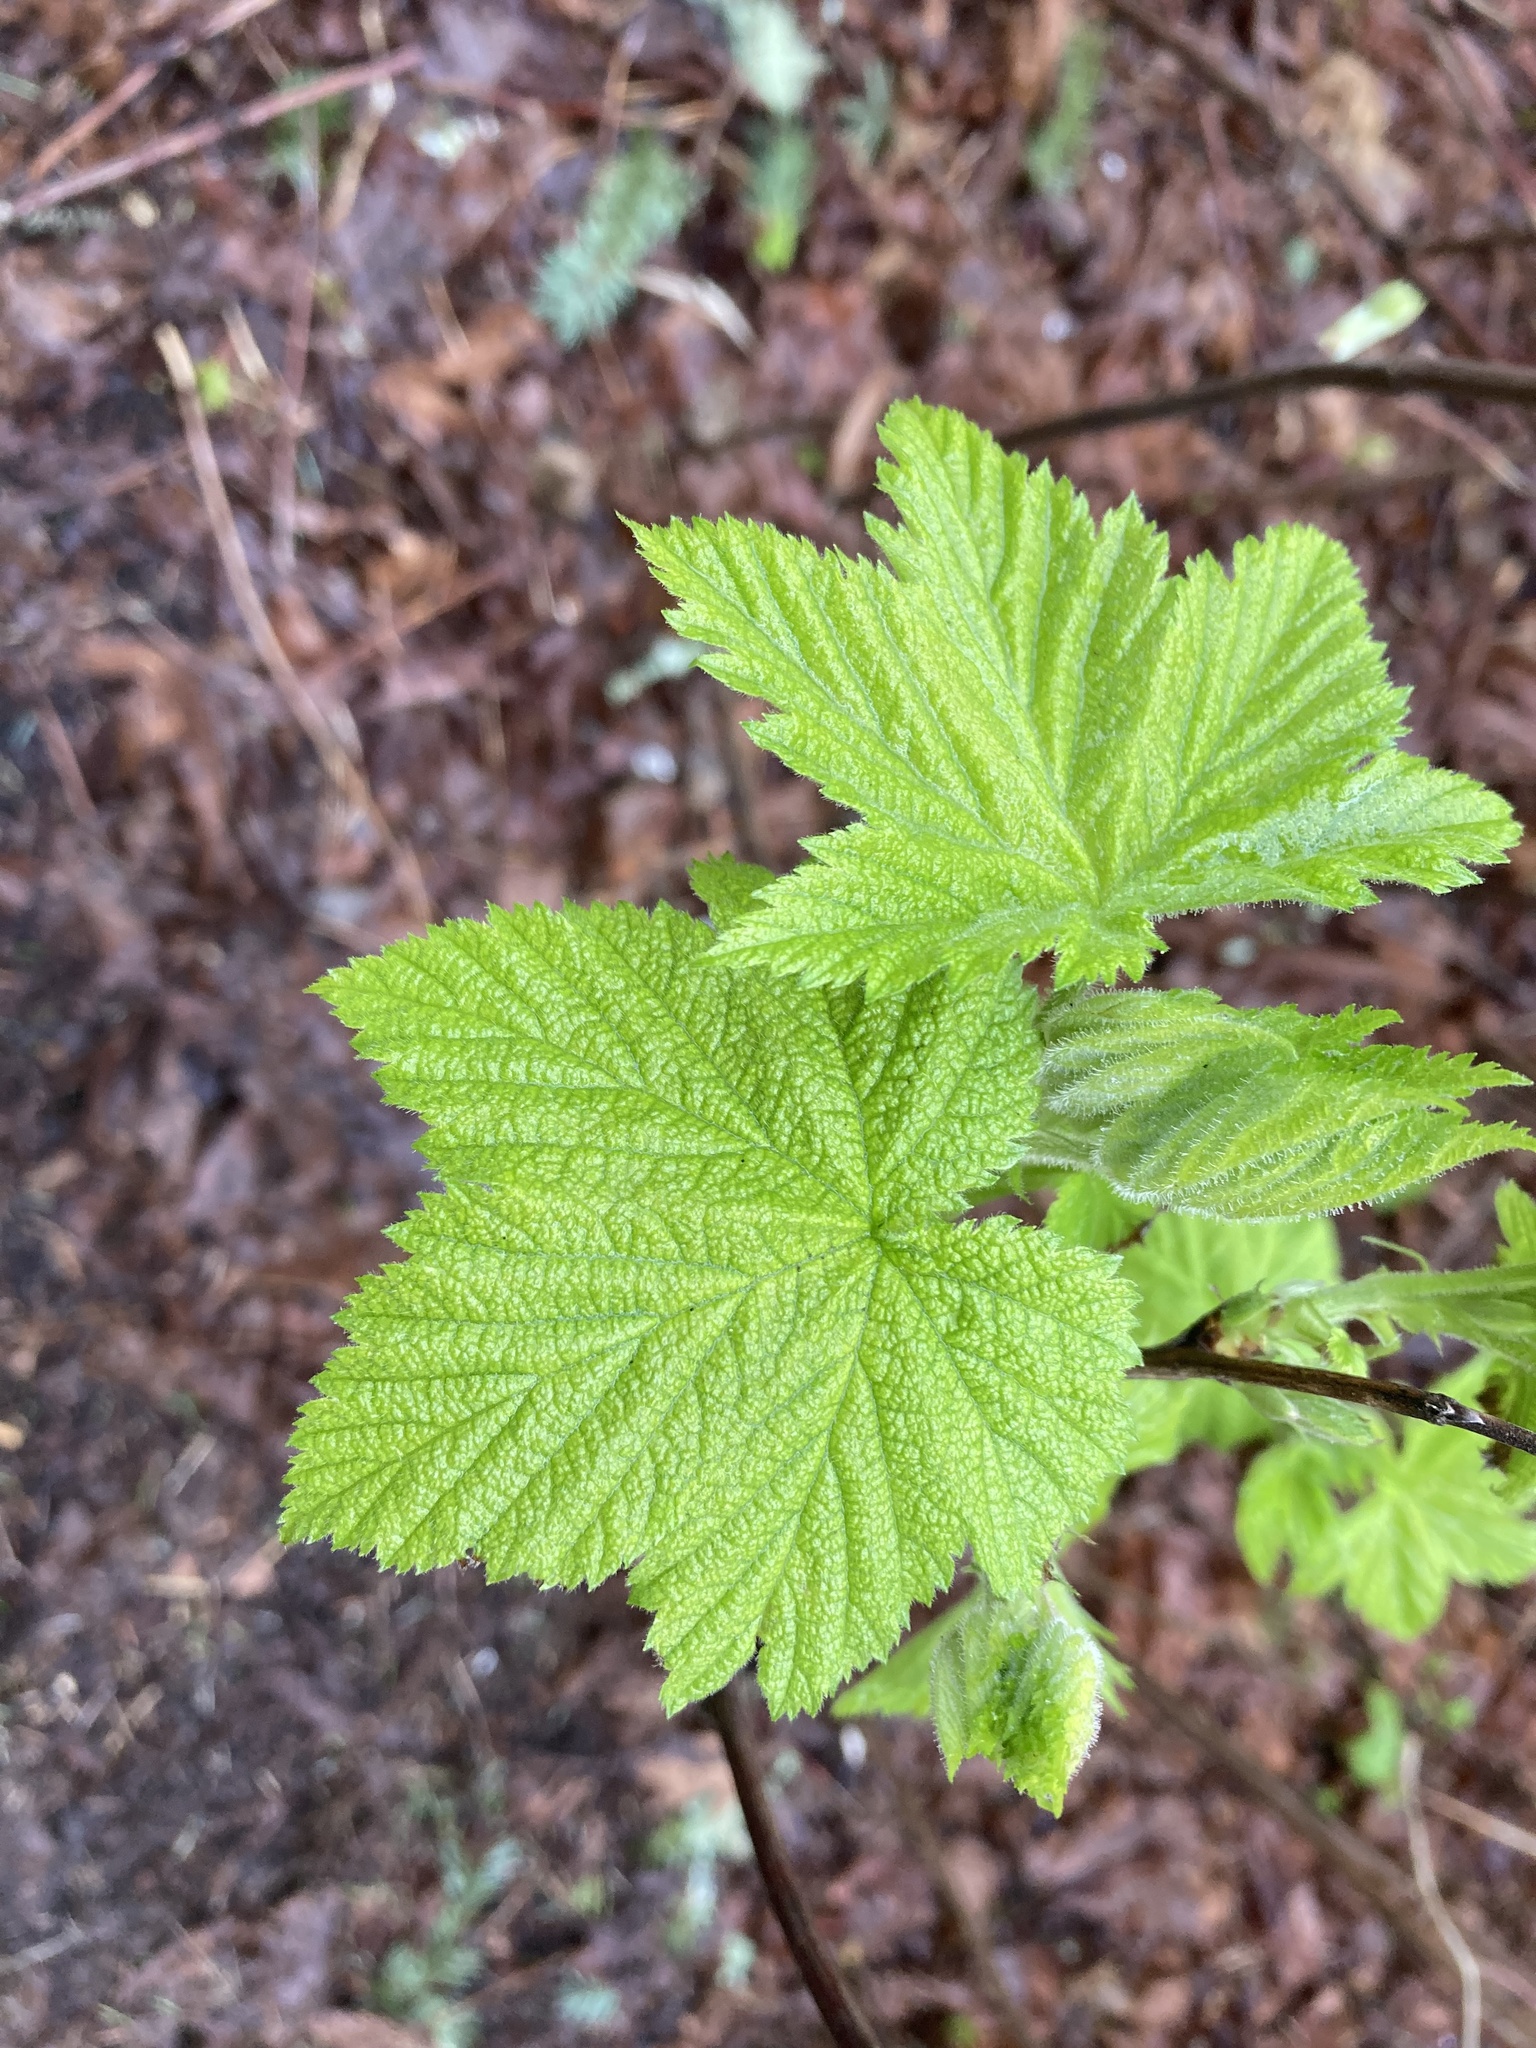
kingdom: Plantae
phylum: Tracheophyta
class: Magnoliopsida
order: Rosales
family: Rosaceae
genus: Rubus
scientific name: Rubus parviflorus
